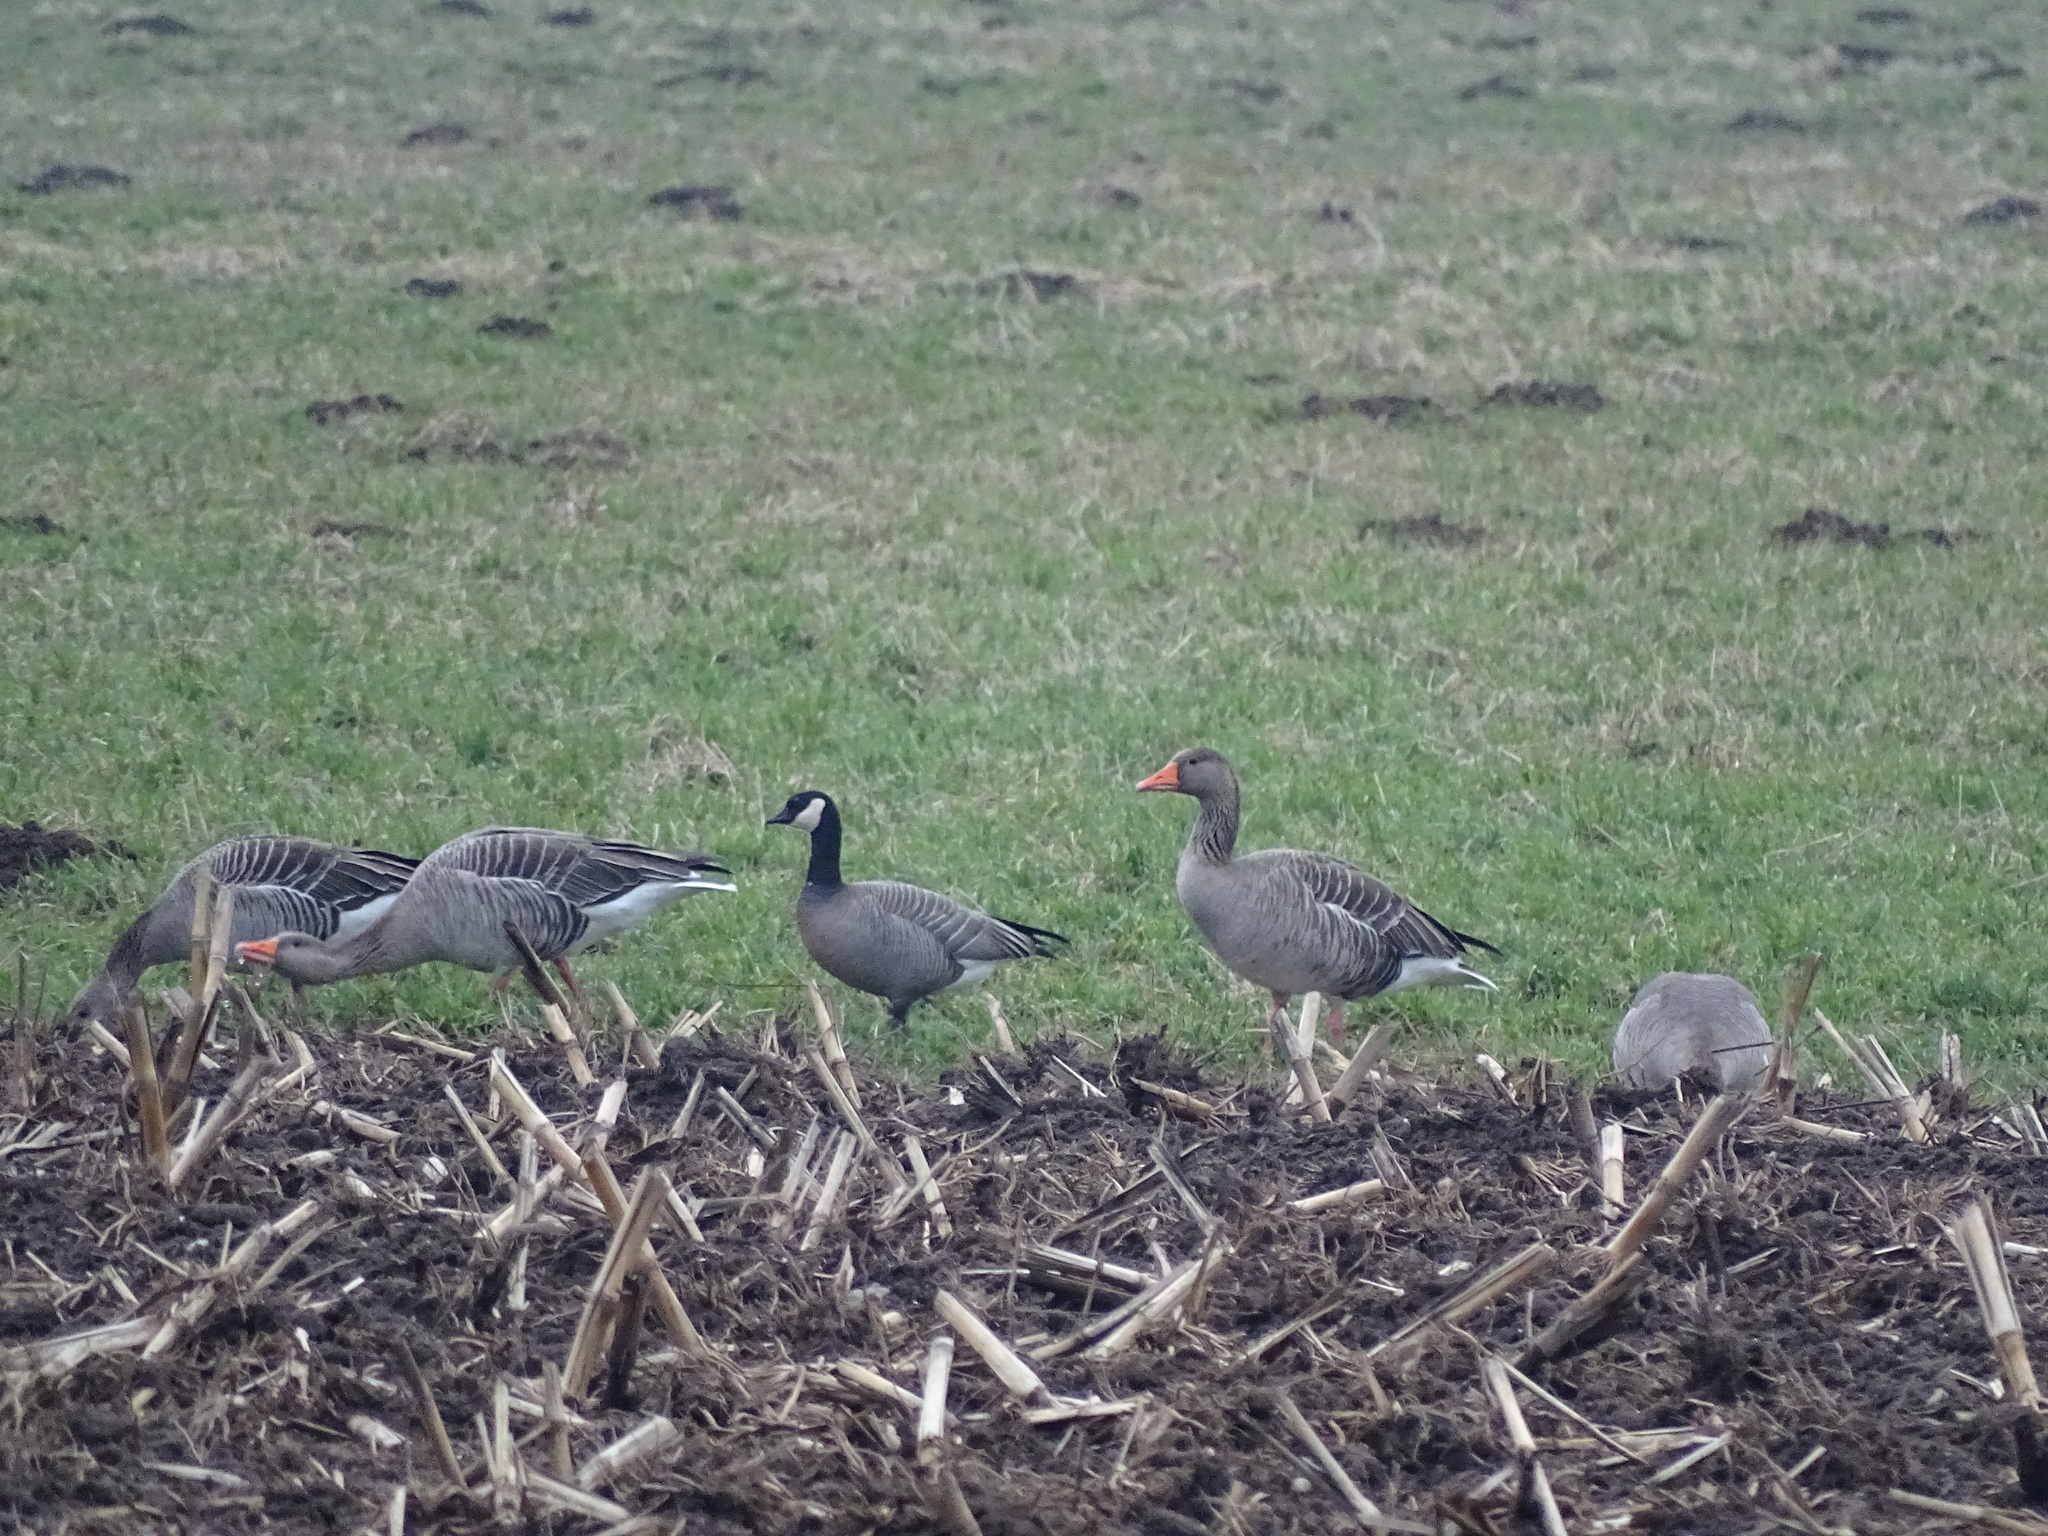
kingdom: Animalia
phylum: Chordata
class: Aves
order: Anseriformes
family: Anatidae
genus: Branta
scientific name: Branta hutchinsii
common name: Cackling goose
